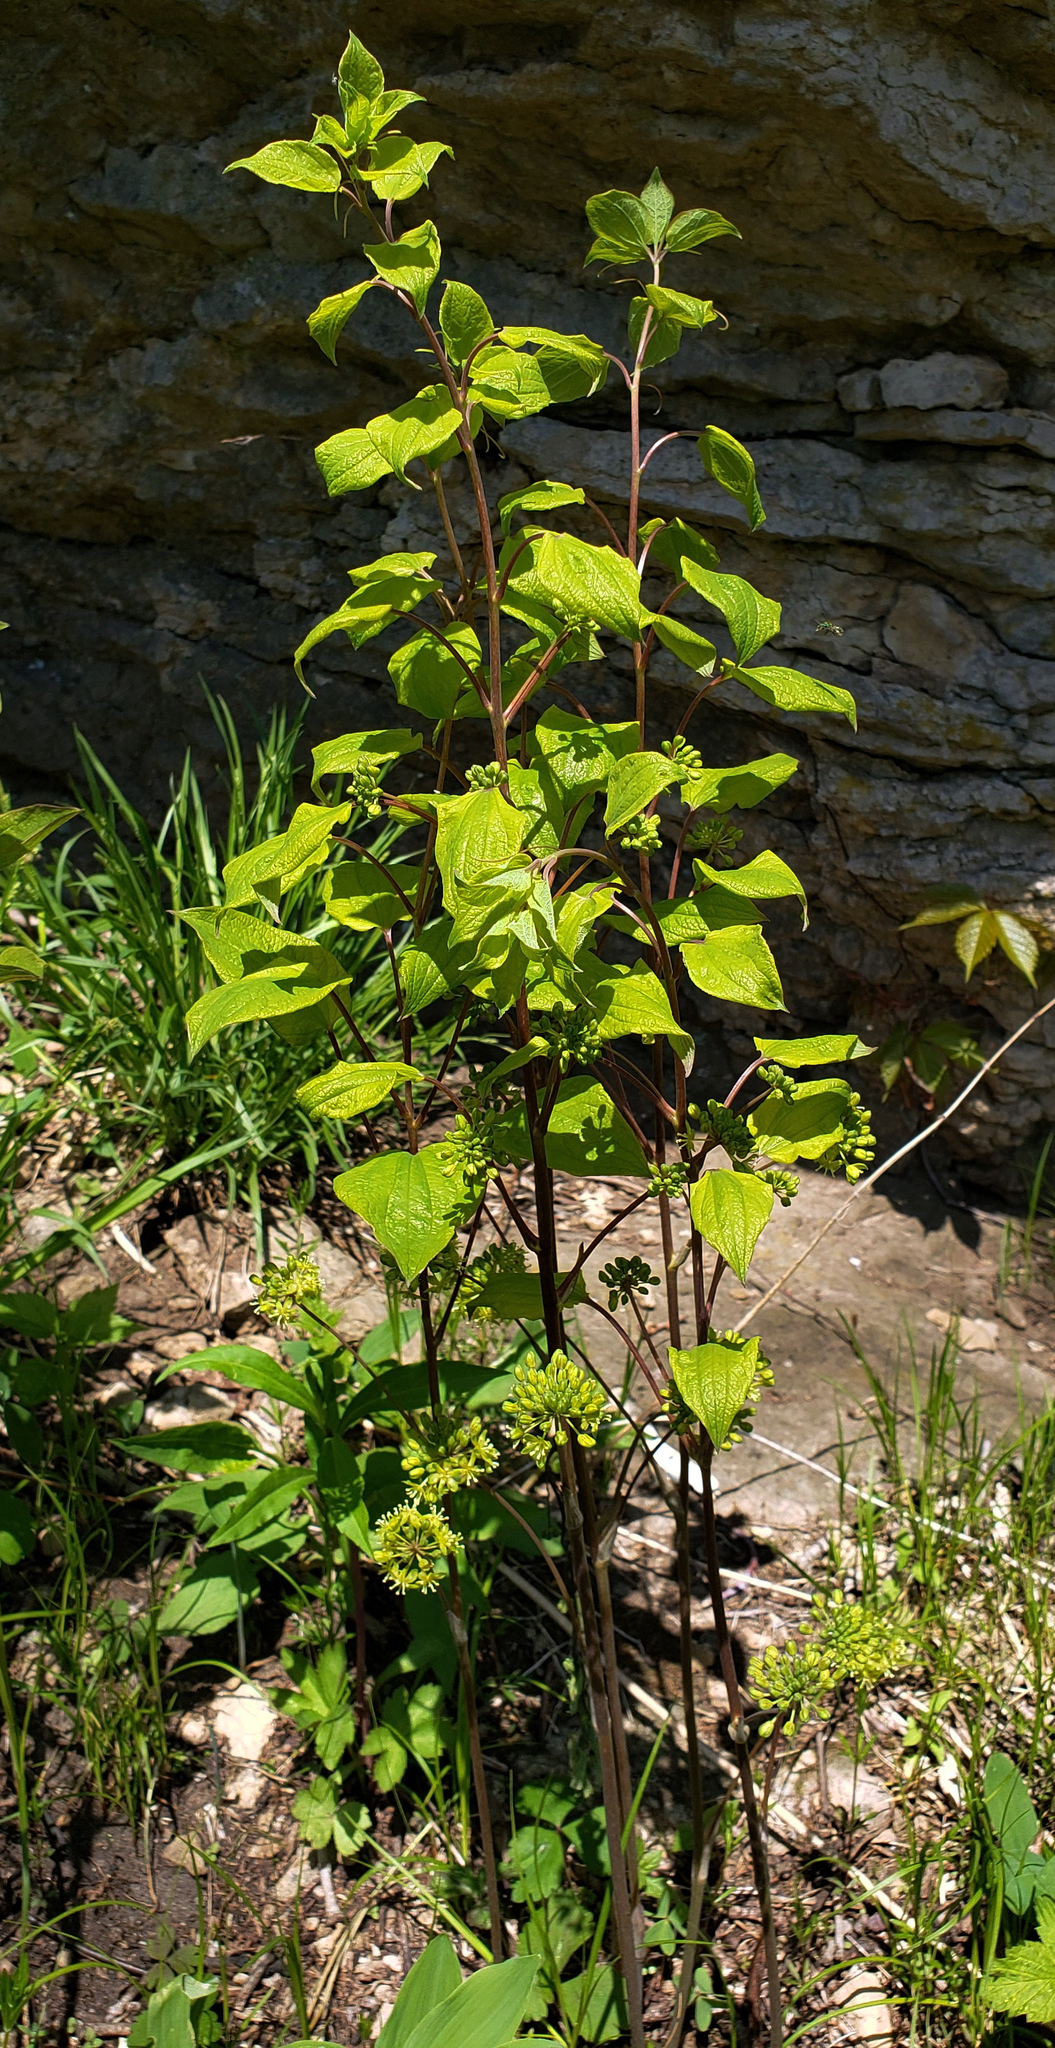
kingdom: Plantae
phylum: Tracheophyta
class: Liliopsida
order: Liliales
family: Smilacaceae
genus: Smilax
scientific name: Smilax illinoensis
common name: Illinois carrionflower
